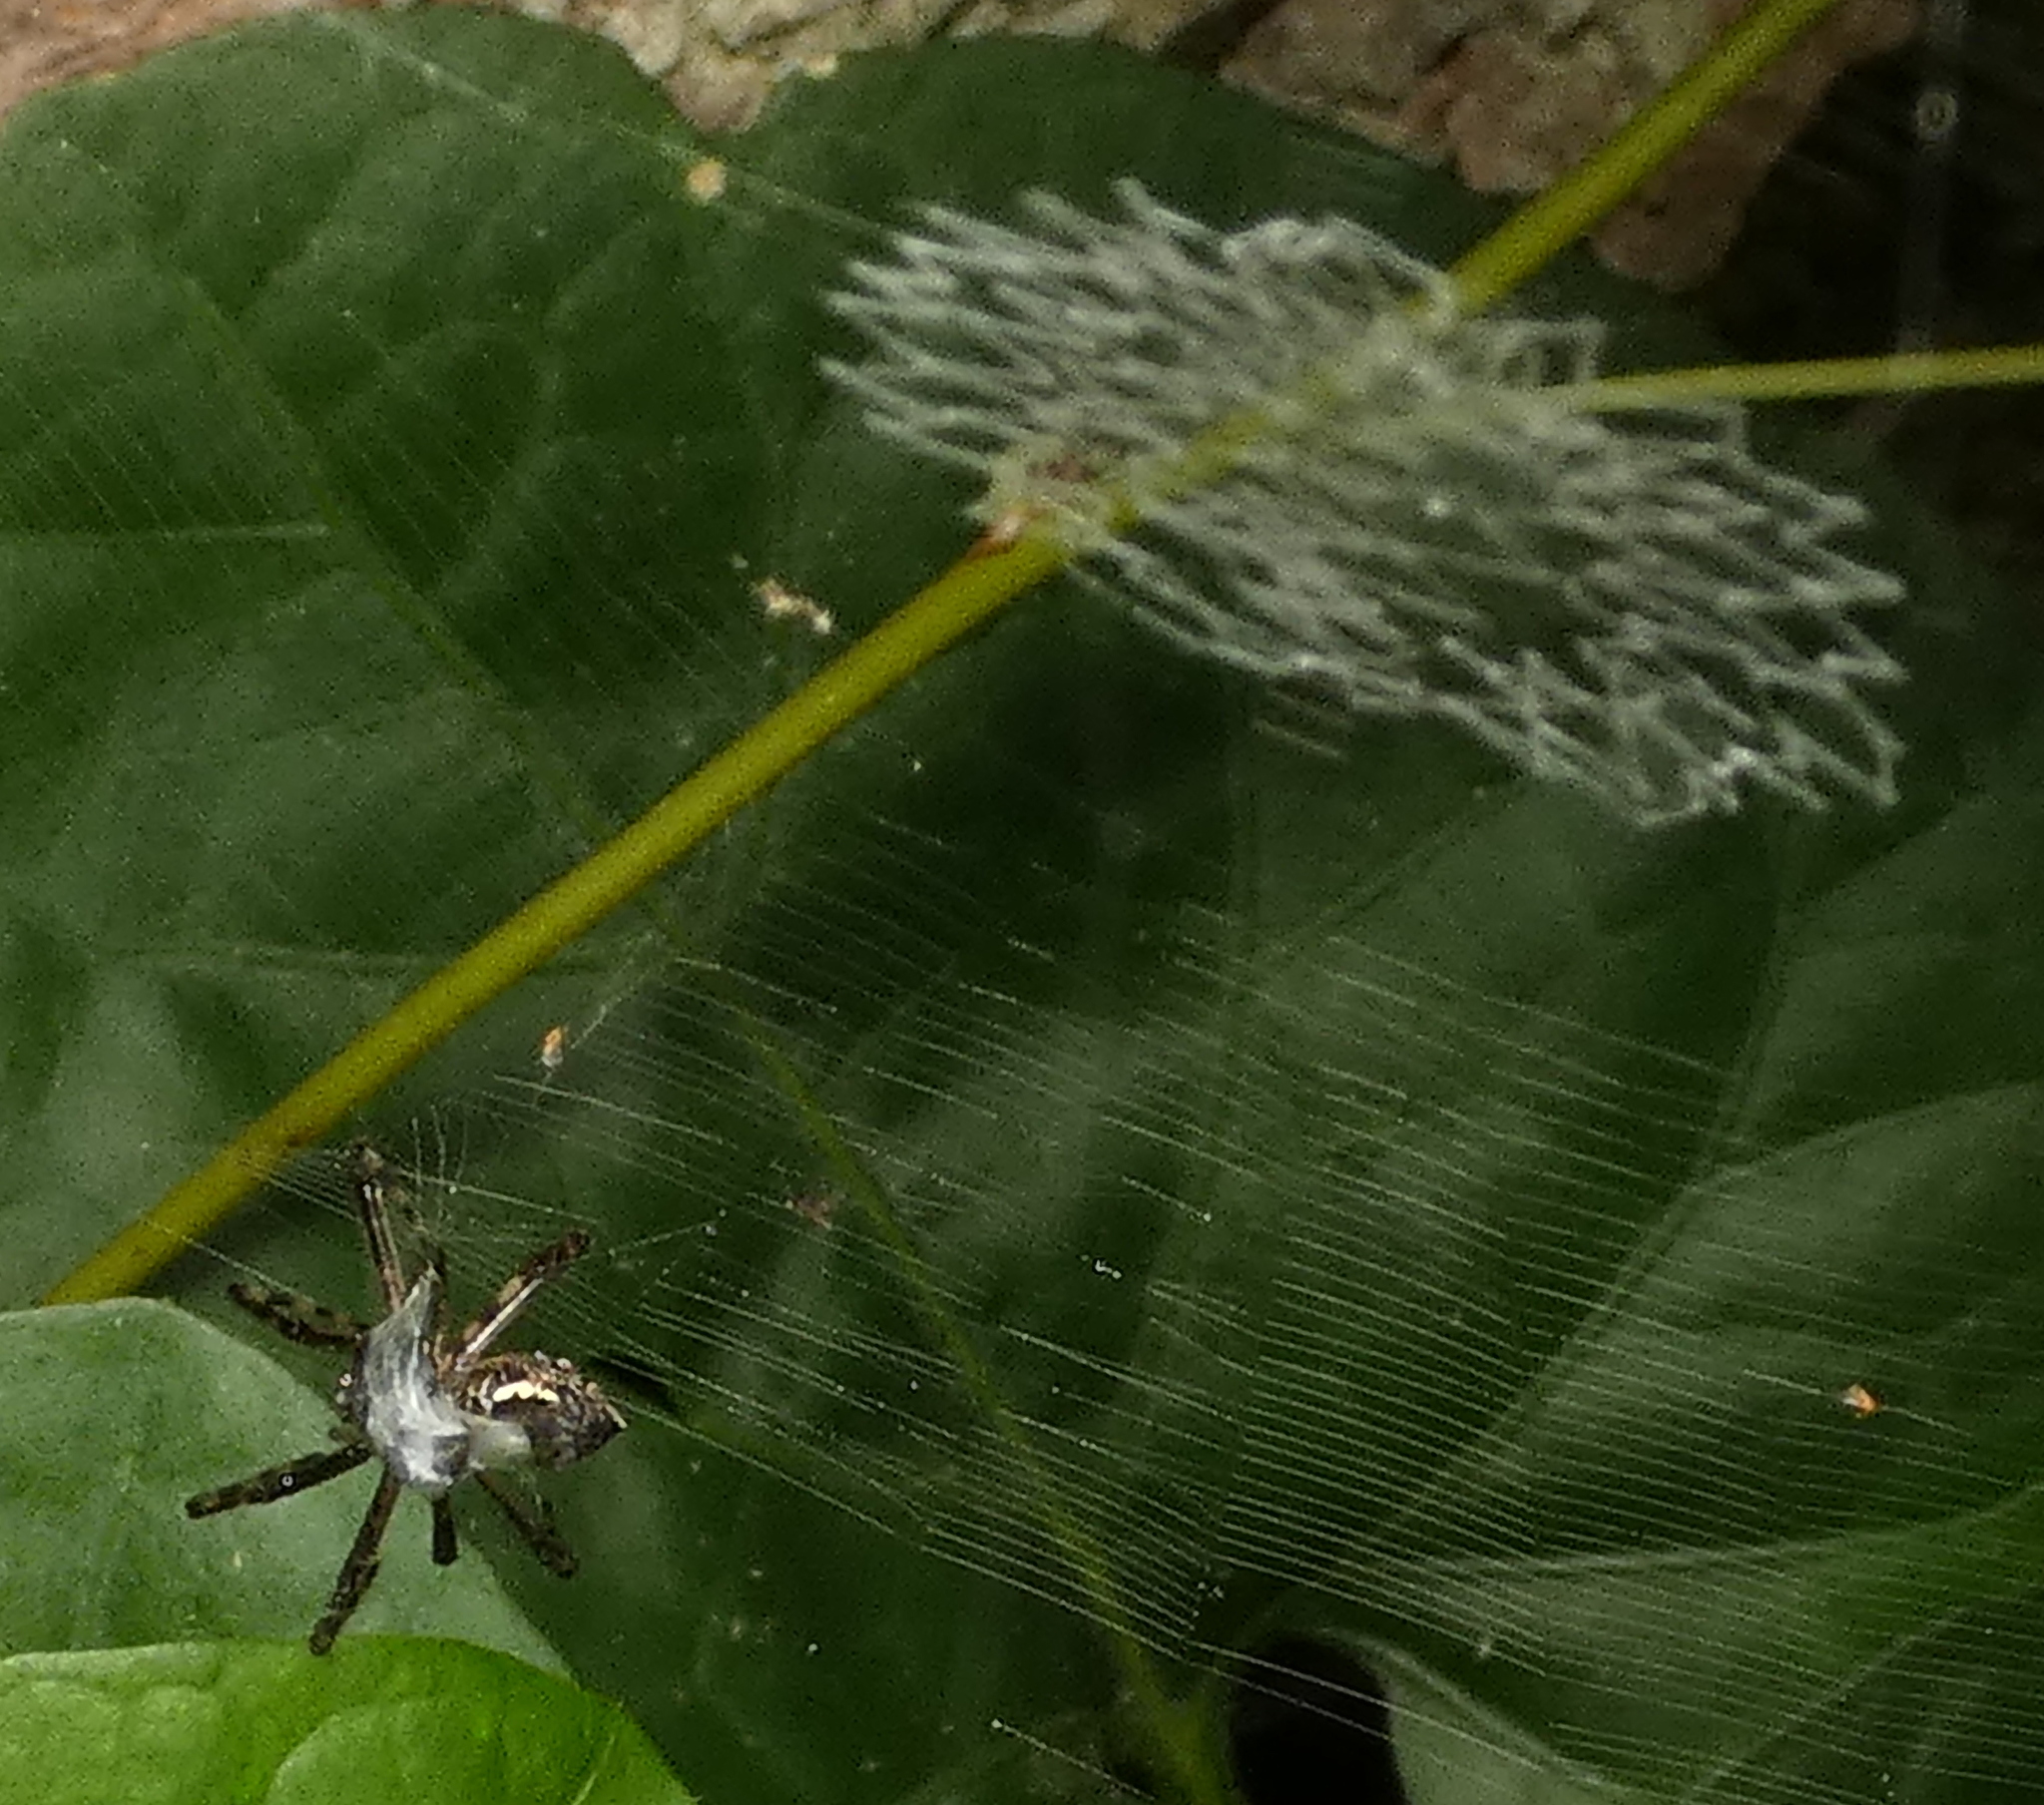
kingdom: Animalia
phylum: Arthropoda
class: Arachnida
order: Araneae
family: Araneidae
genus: Argiope
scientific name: Argiope argentata
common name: Orb weavers
